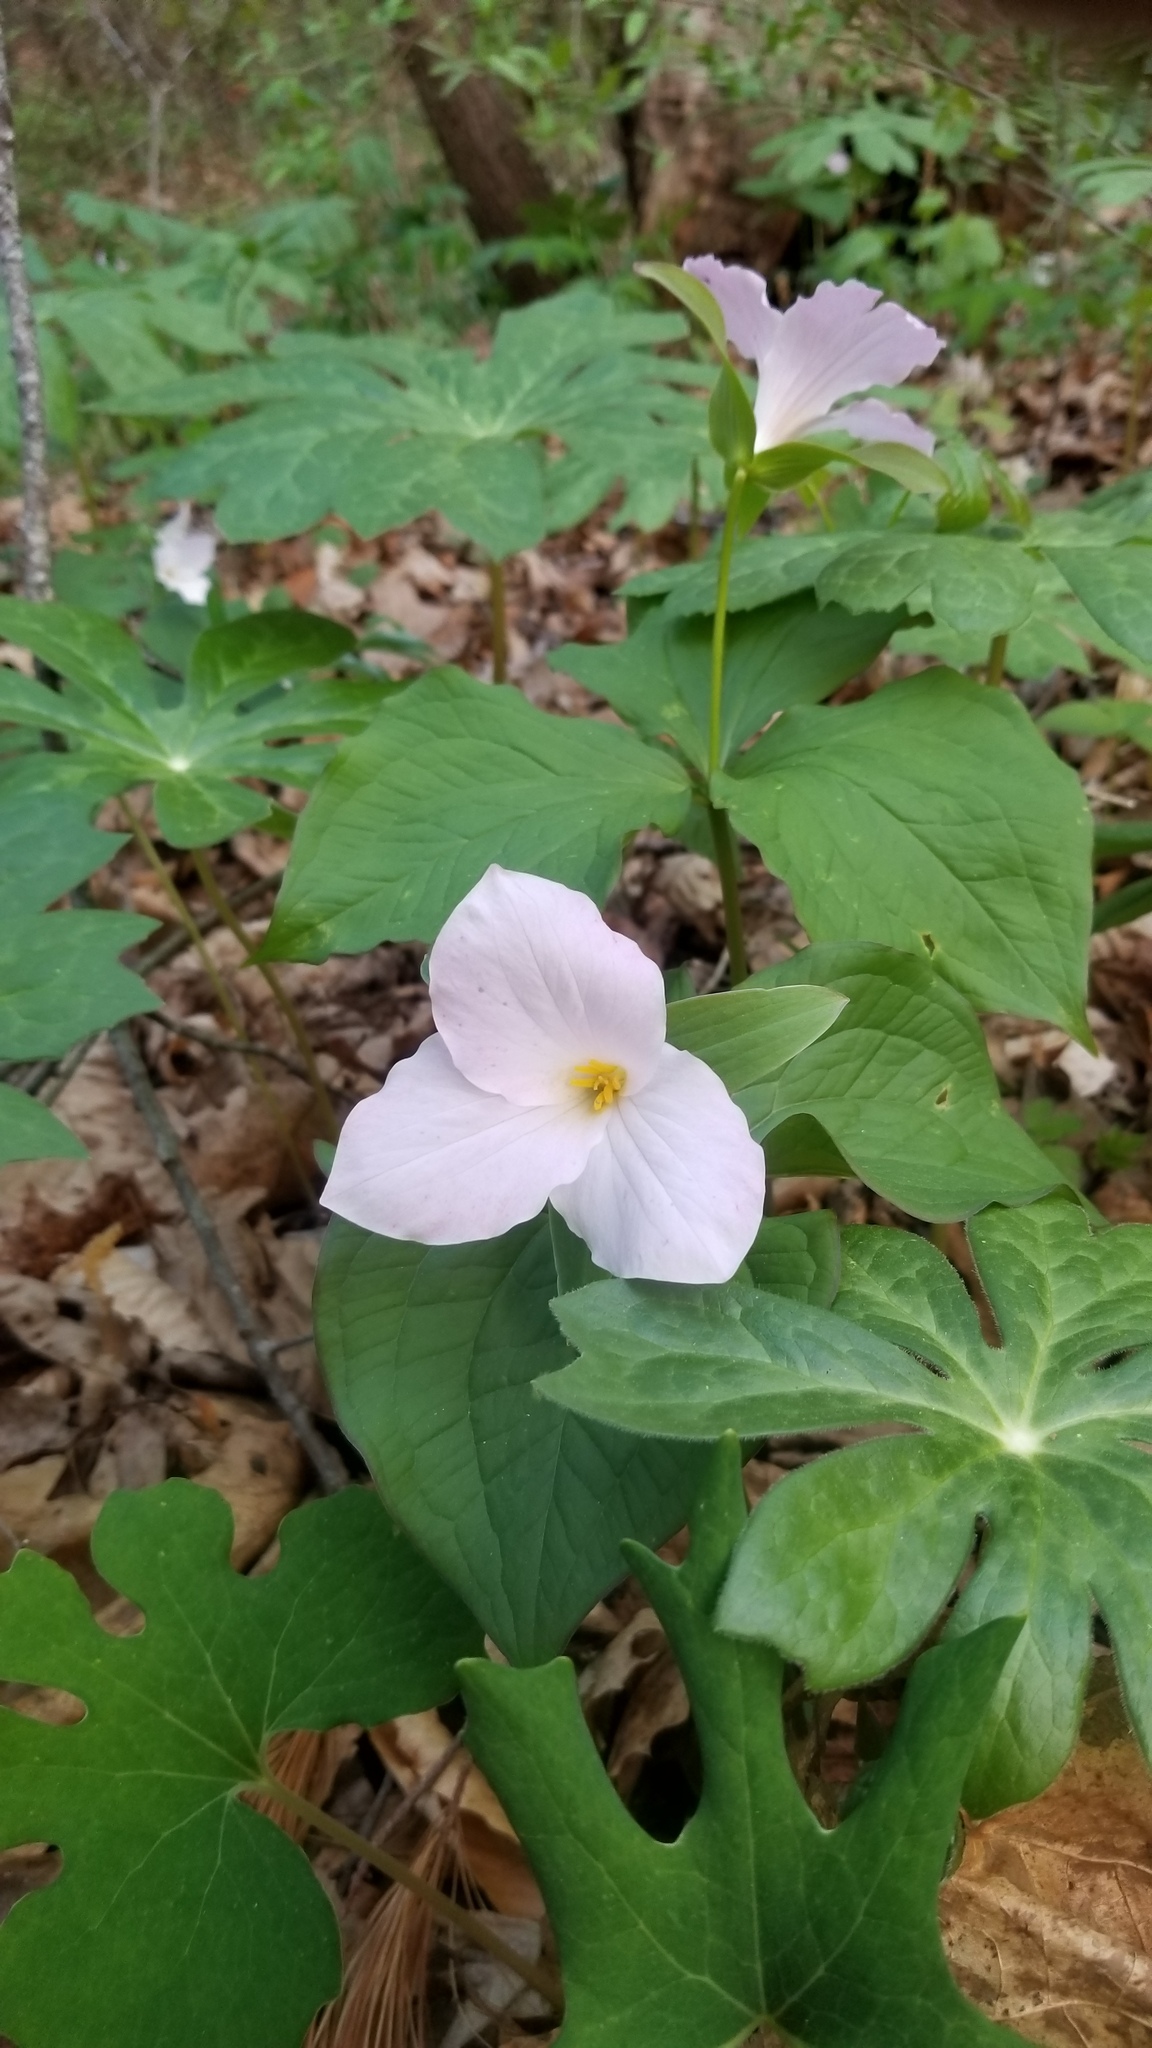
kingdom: Plantae
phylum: Tracheophyta
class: Liliopsida
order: Liliales
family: Melanthiaceae
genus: Trillium
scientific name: Trillium grandiflorum
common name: Great white trillium
